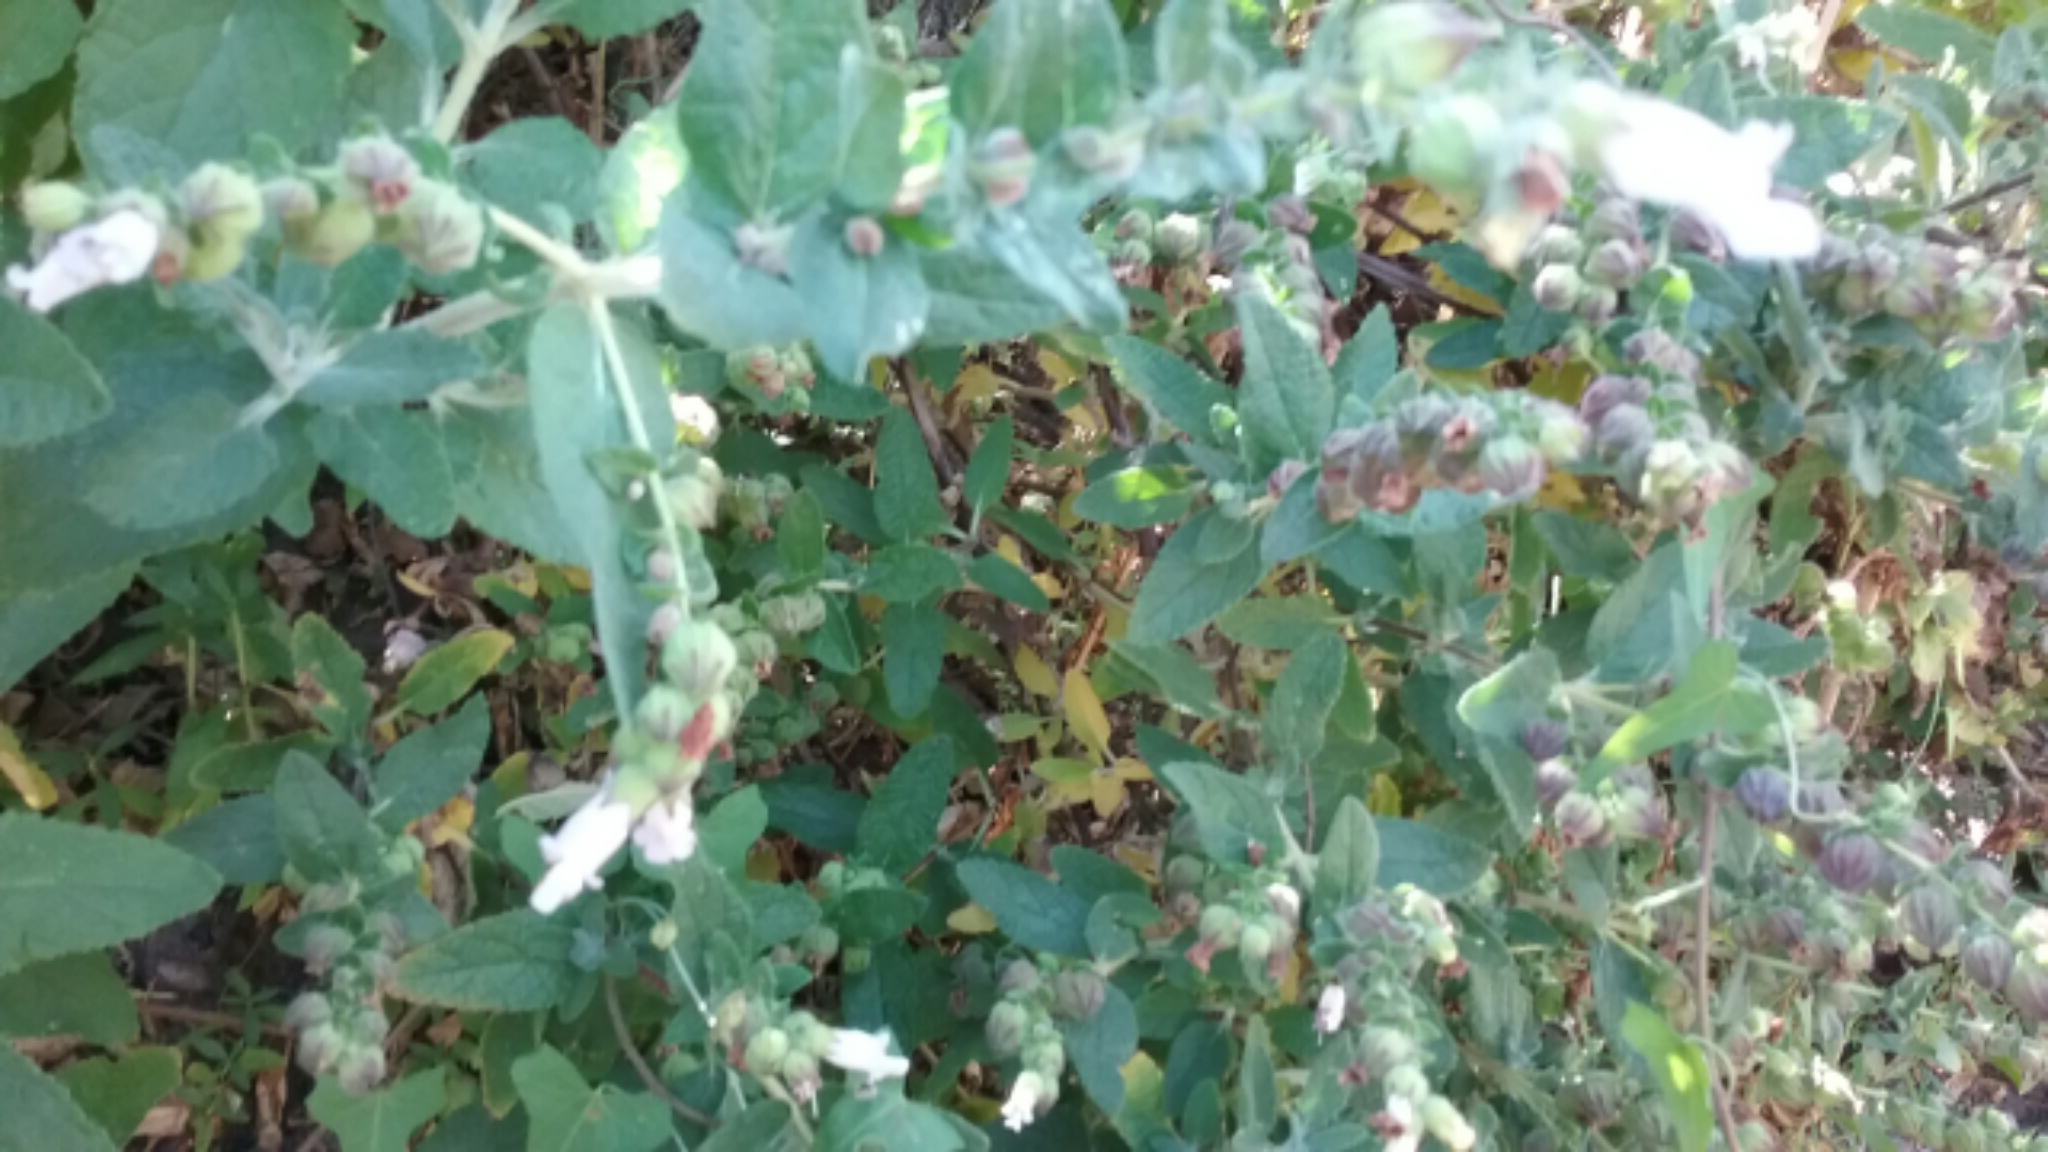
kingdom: Plantae
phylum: Tracheophyta
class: Magnoliopsida
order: Lamiales
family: Lamiaceae
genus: Lepechinia
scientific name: Lepechinia calycina
